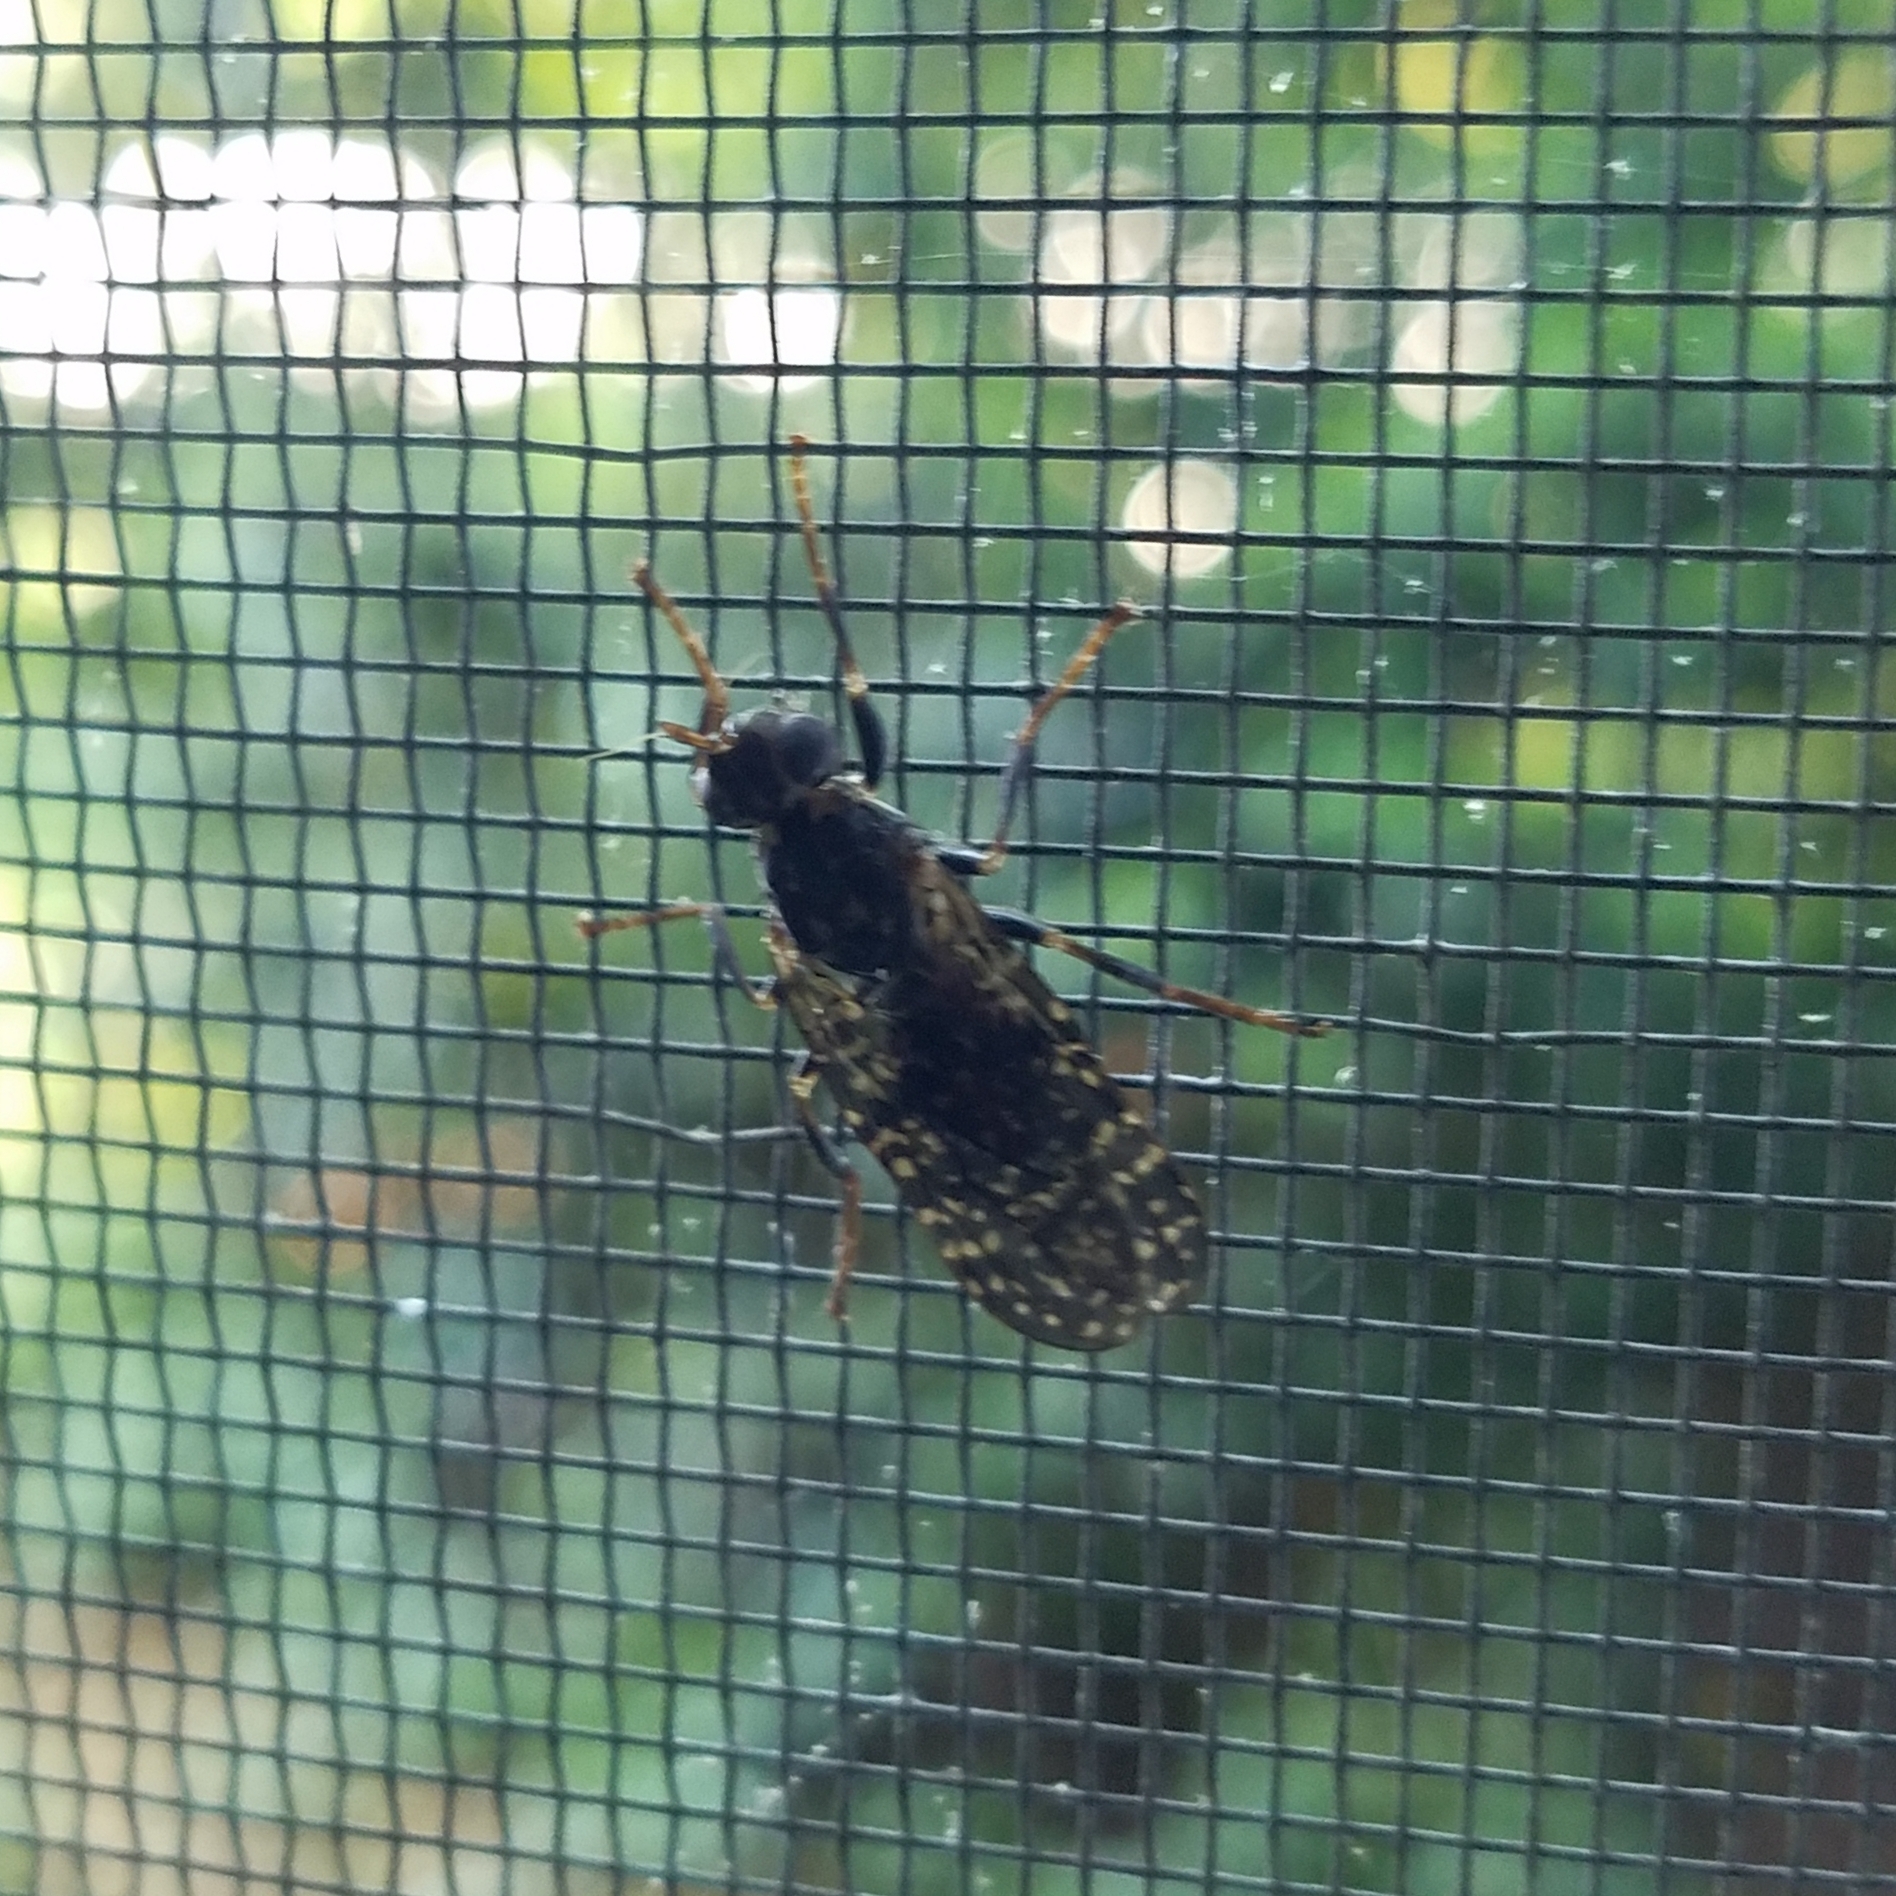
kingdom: Animalia
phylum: Arthropoda
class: Insecta
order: Diptera
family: Pyrgotidae
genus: Pyrgota
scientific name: Pyrgota valida
